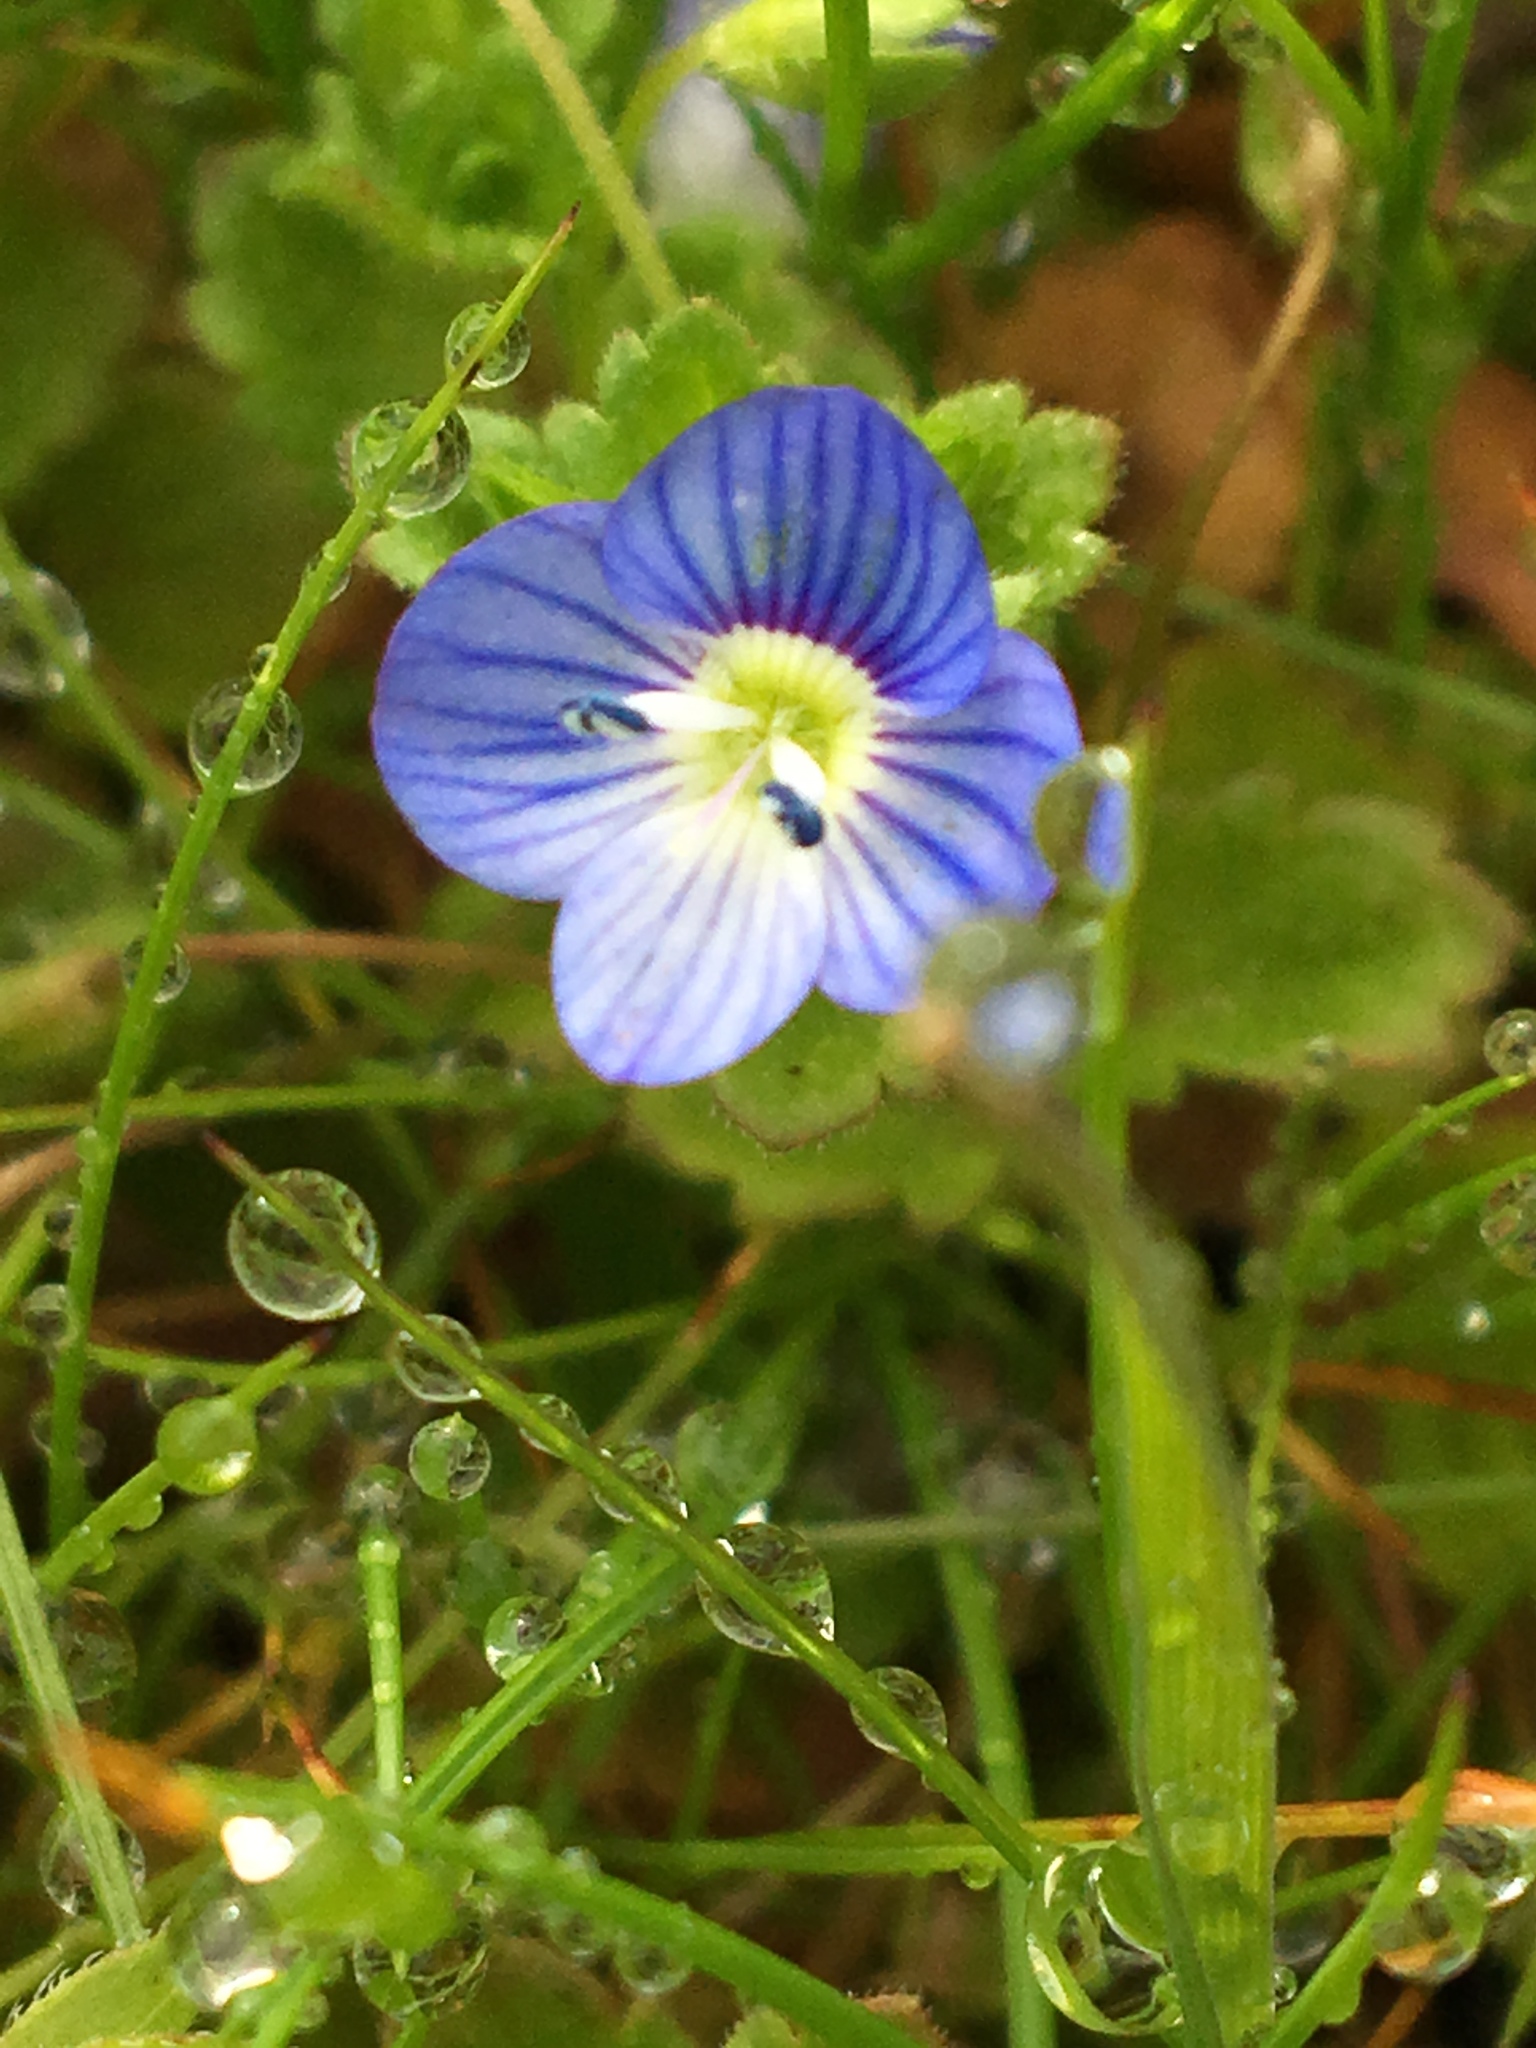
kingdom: Plantae
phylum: Tracheophyta
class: Magnoliopsida
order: Lamiales
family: Plantaginaceae
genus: Veronica
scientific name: Veronica persica
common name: Common field-speedwell
